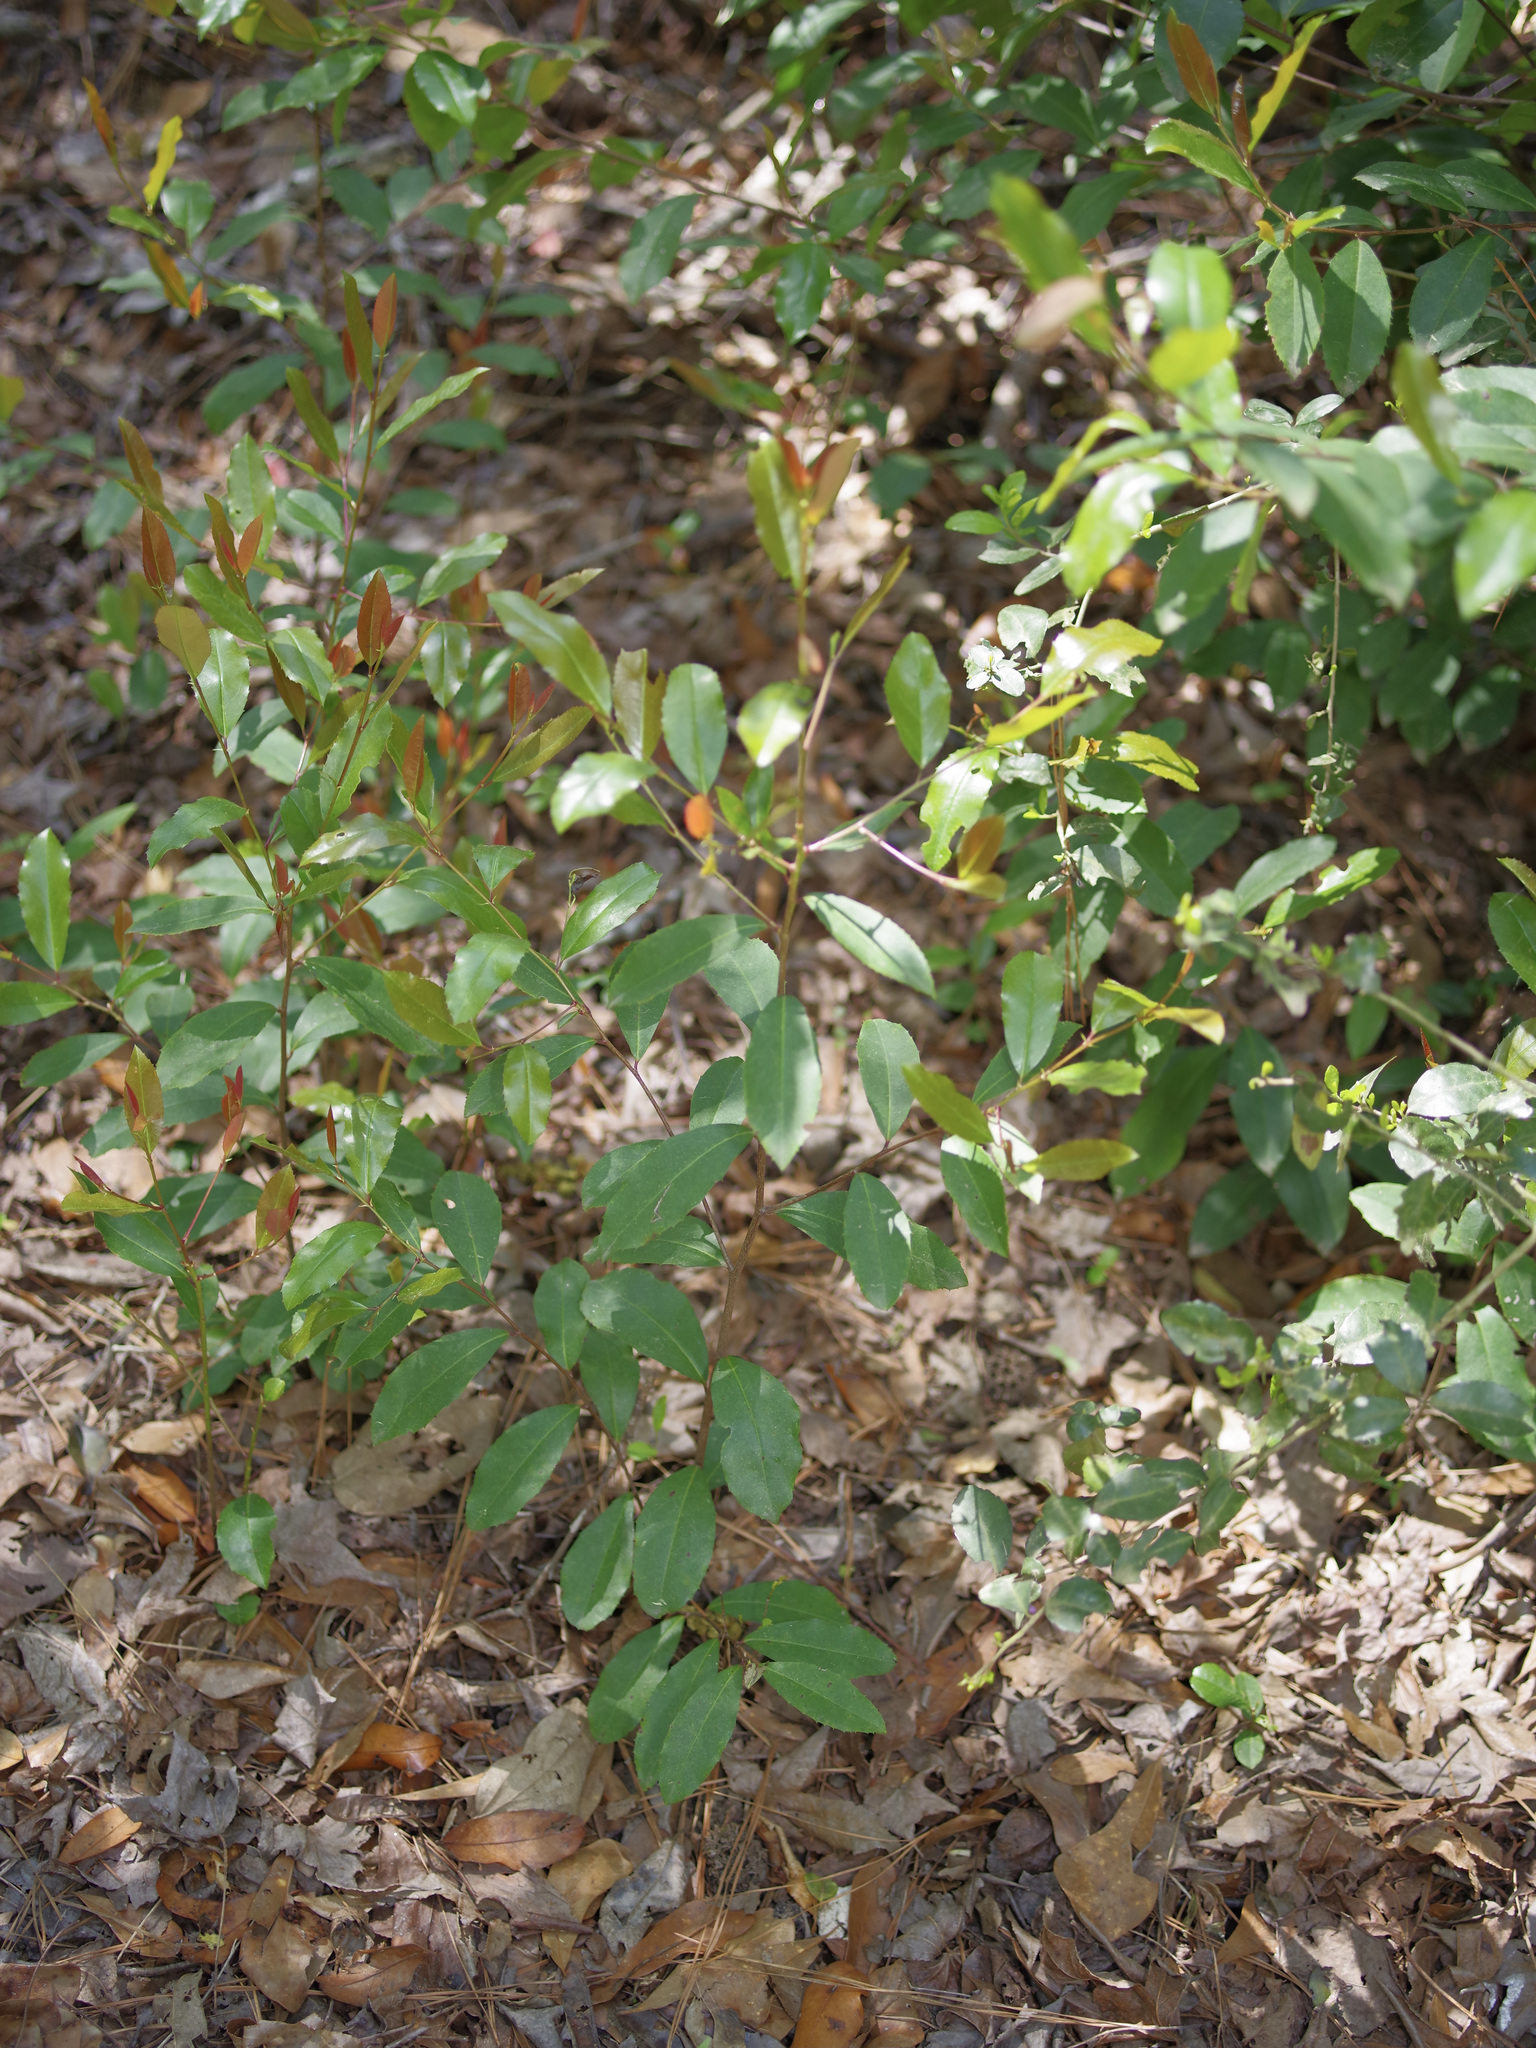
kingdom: Plantae
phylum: Tracheophyta
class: Magnoliopsida
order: Rosales
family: Rosaceae
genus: Prunus
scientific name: Prunus caroliniana
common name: Carolina laurel cherry
